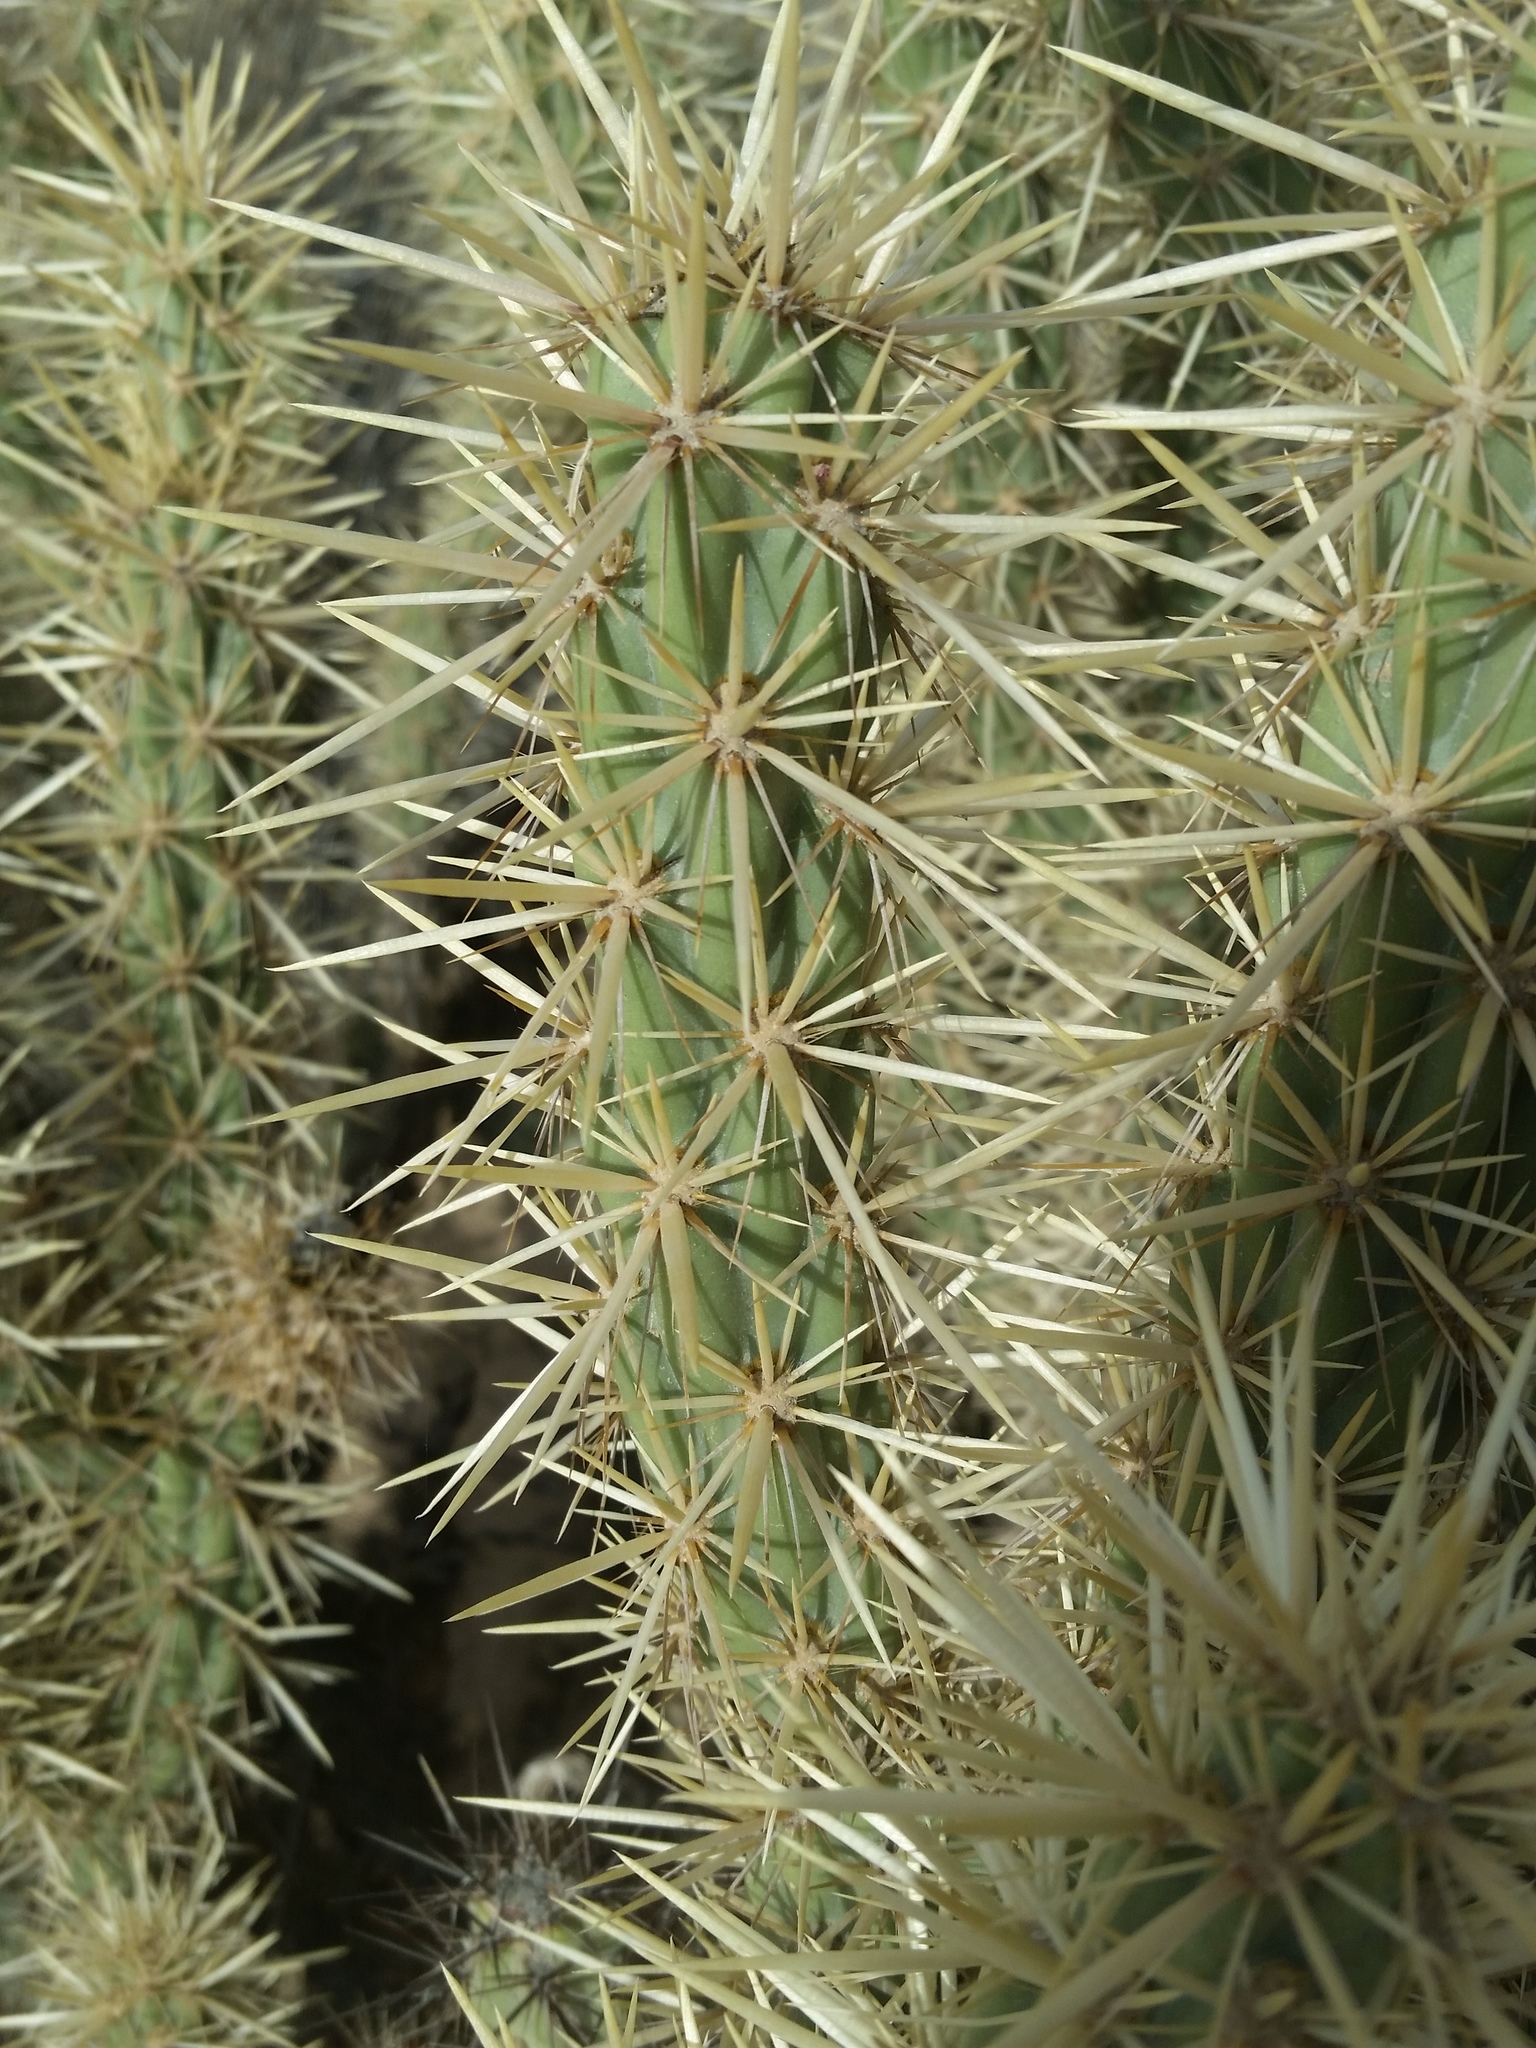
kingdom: Plantae
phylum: Tracheophyta
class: Magnoliopsida
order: Caryophyllales
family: Cactaceae
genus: Cylindropuntia
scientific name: Cylindropuntia acanthocarpa
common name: Buckhorn cholla
